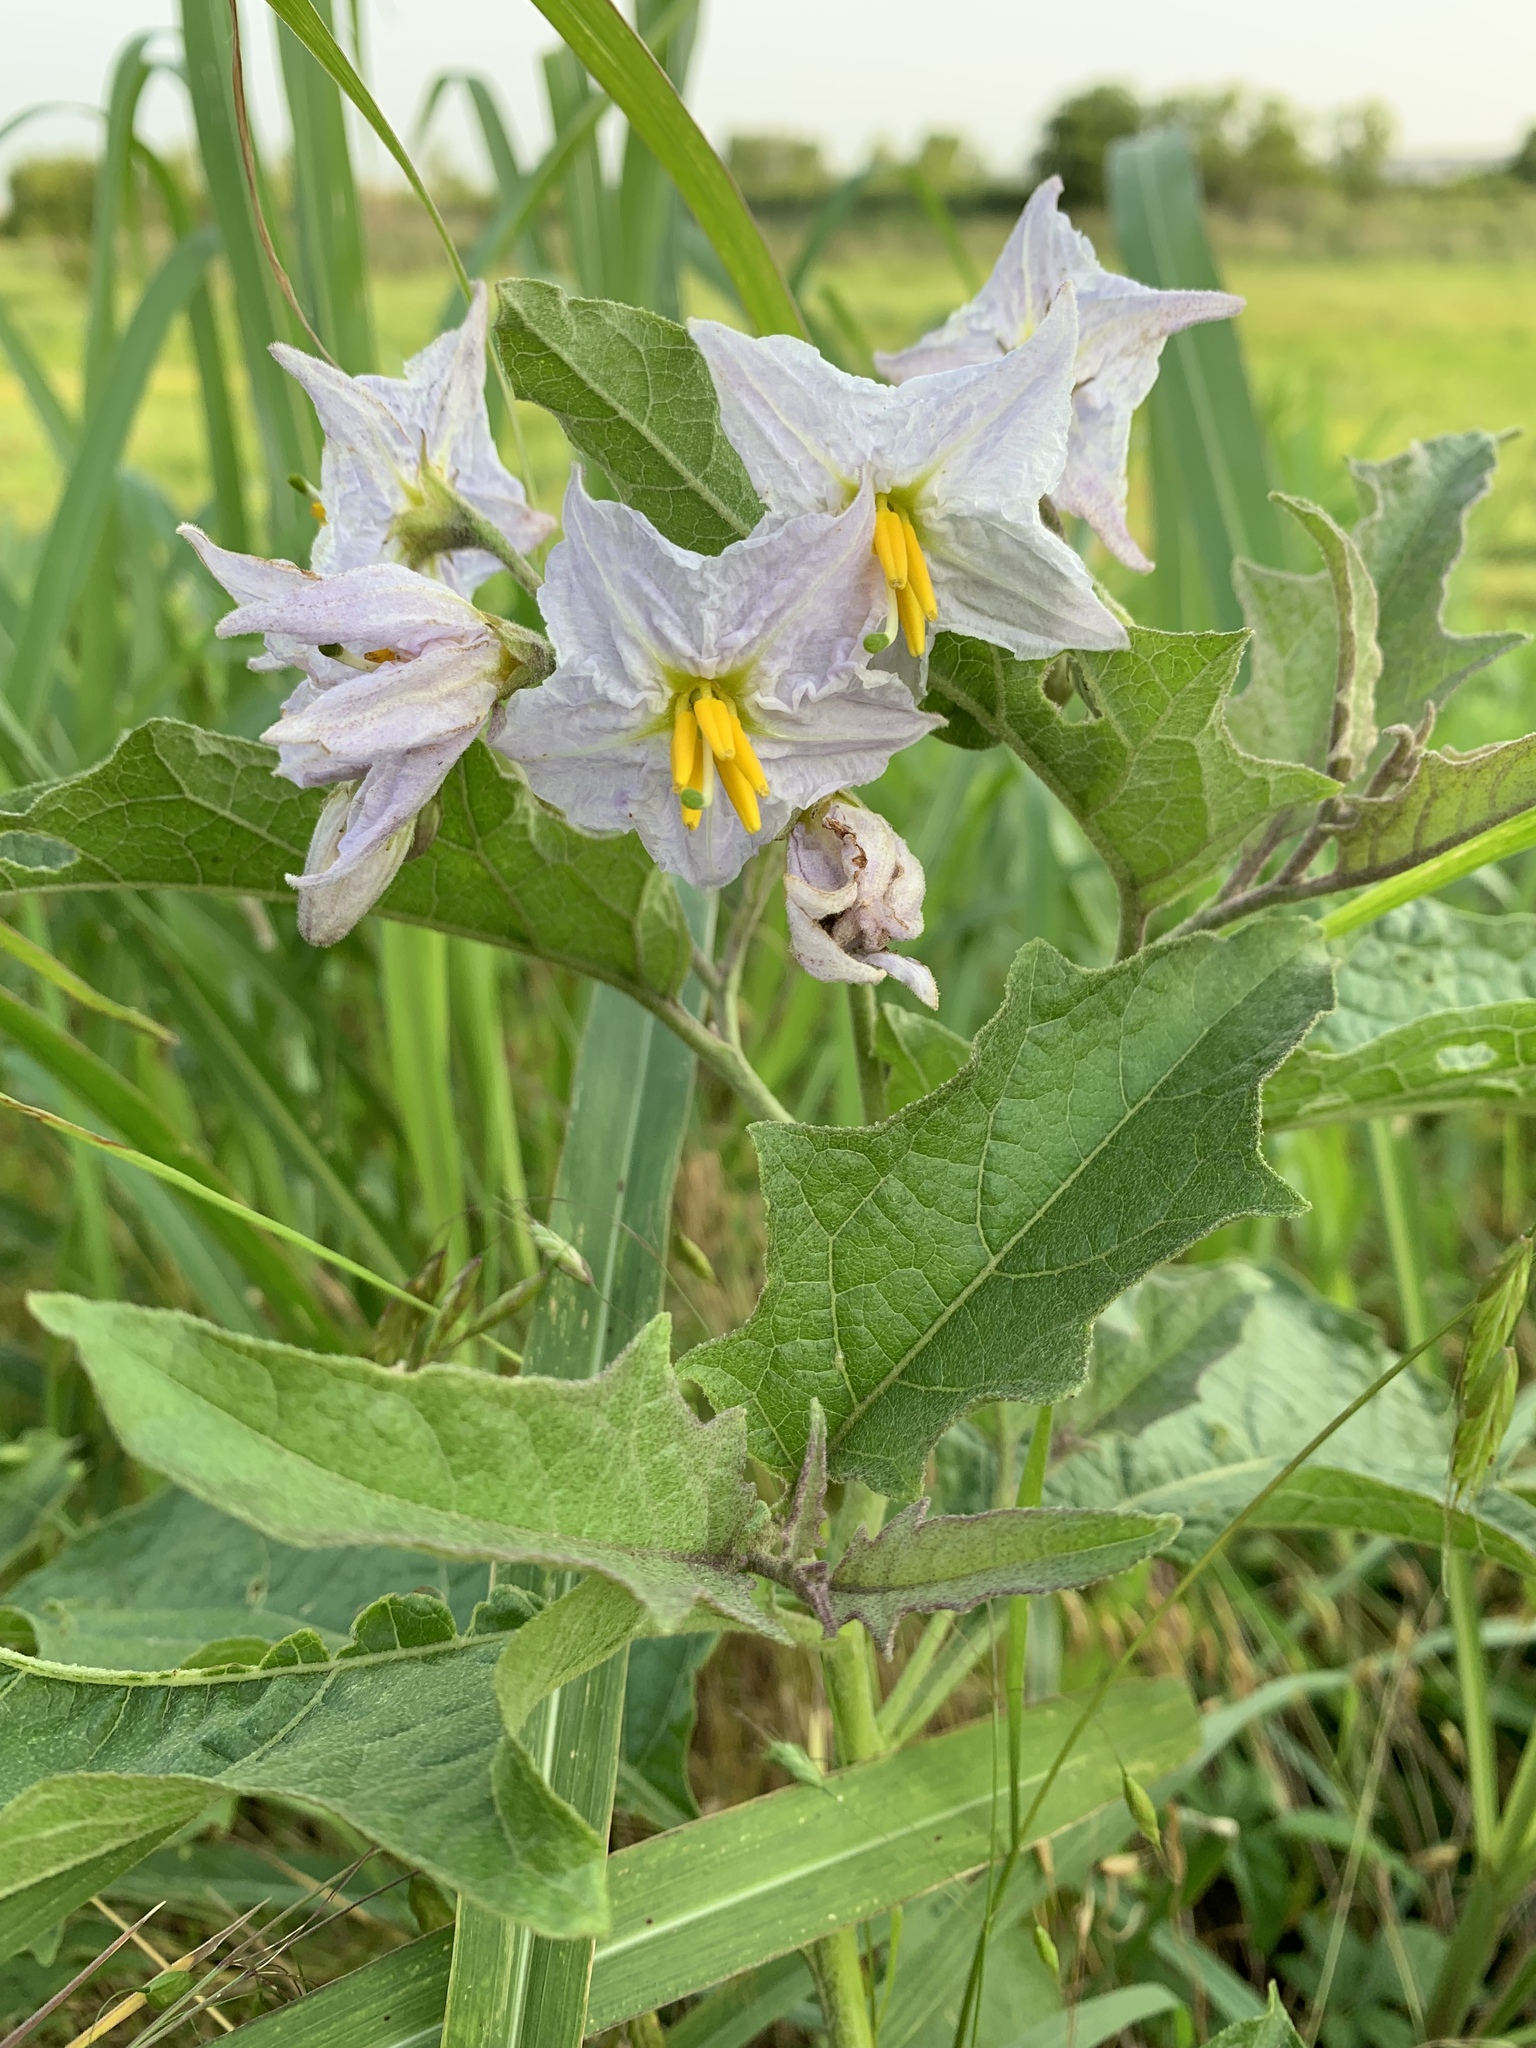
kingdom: Plantae
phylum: Tracheophyta
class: Magnoliopsida
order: Solanales
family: Solanaceae
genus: Solanum
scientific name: Solanum dimidiatum
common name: Carolina horse-nettle
